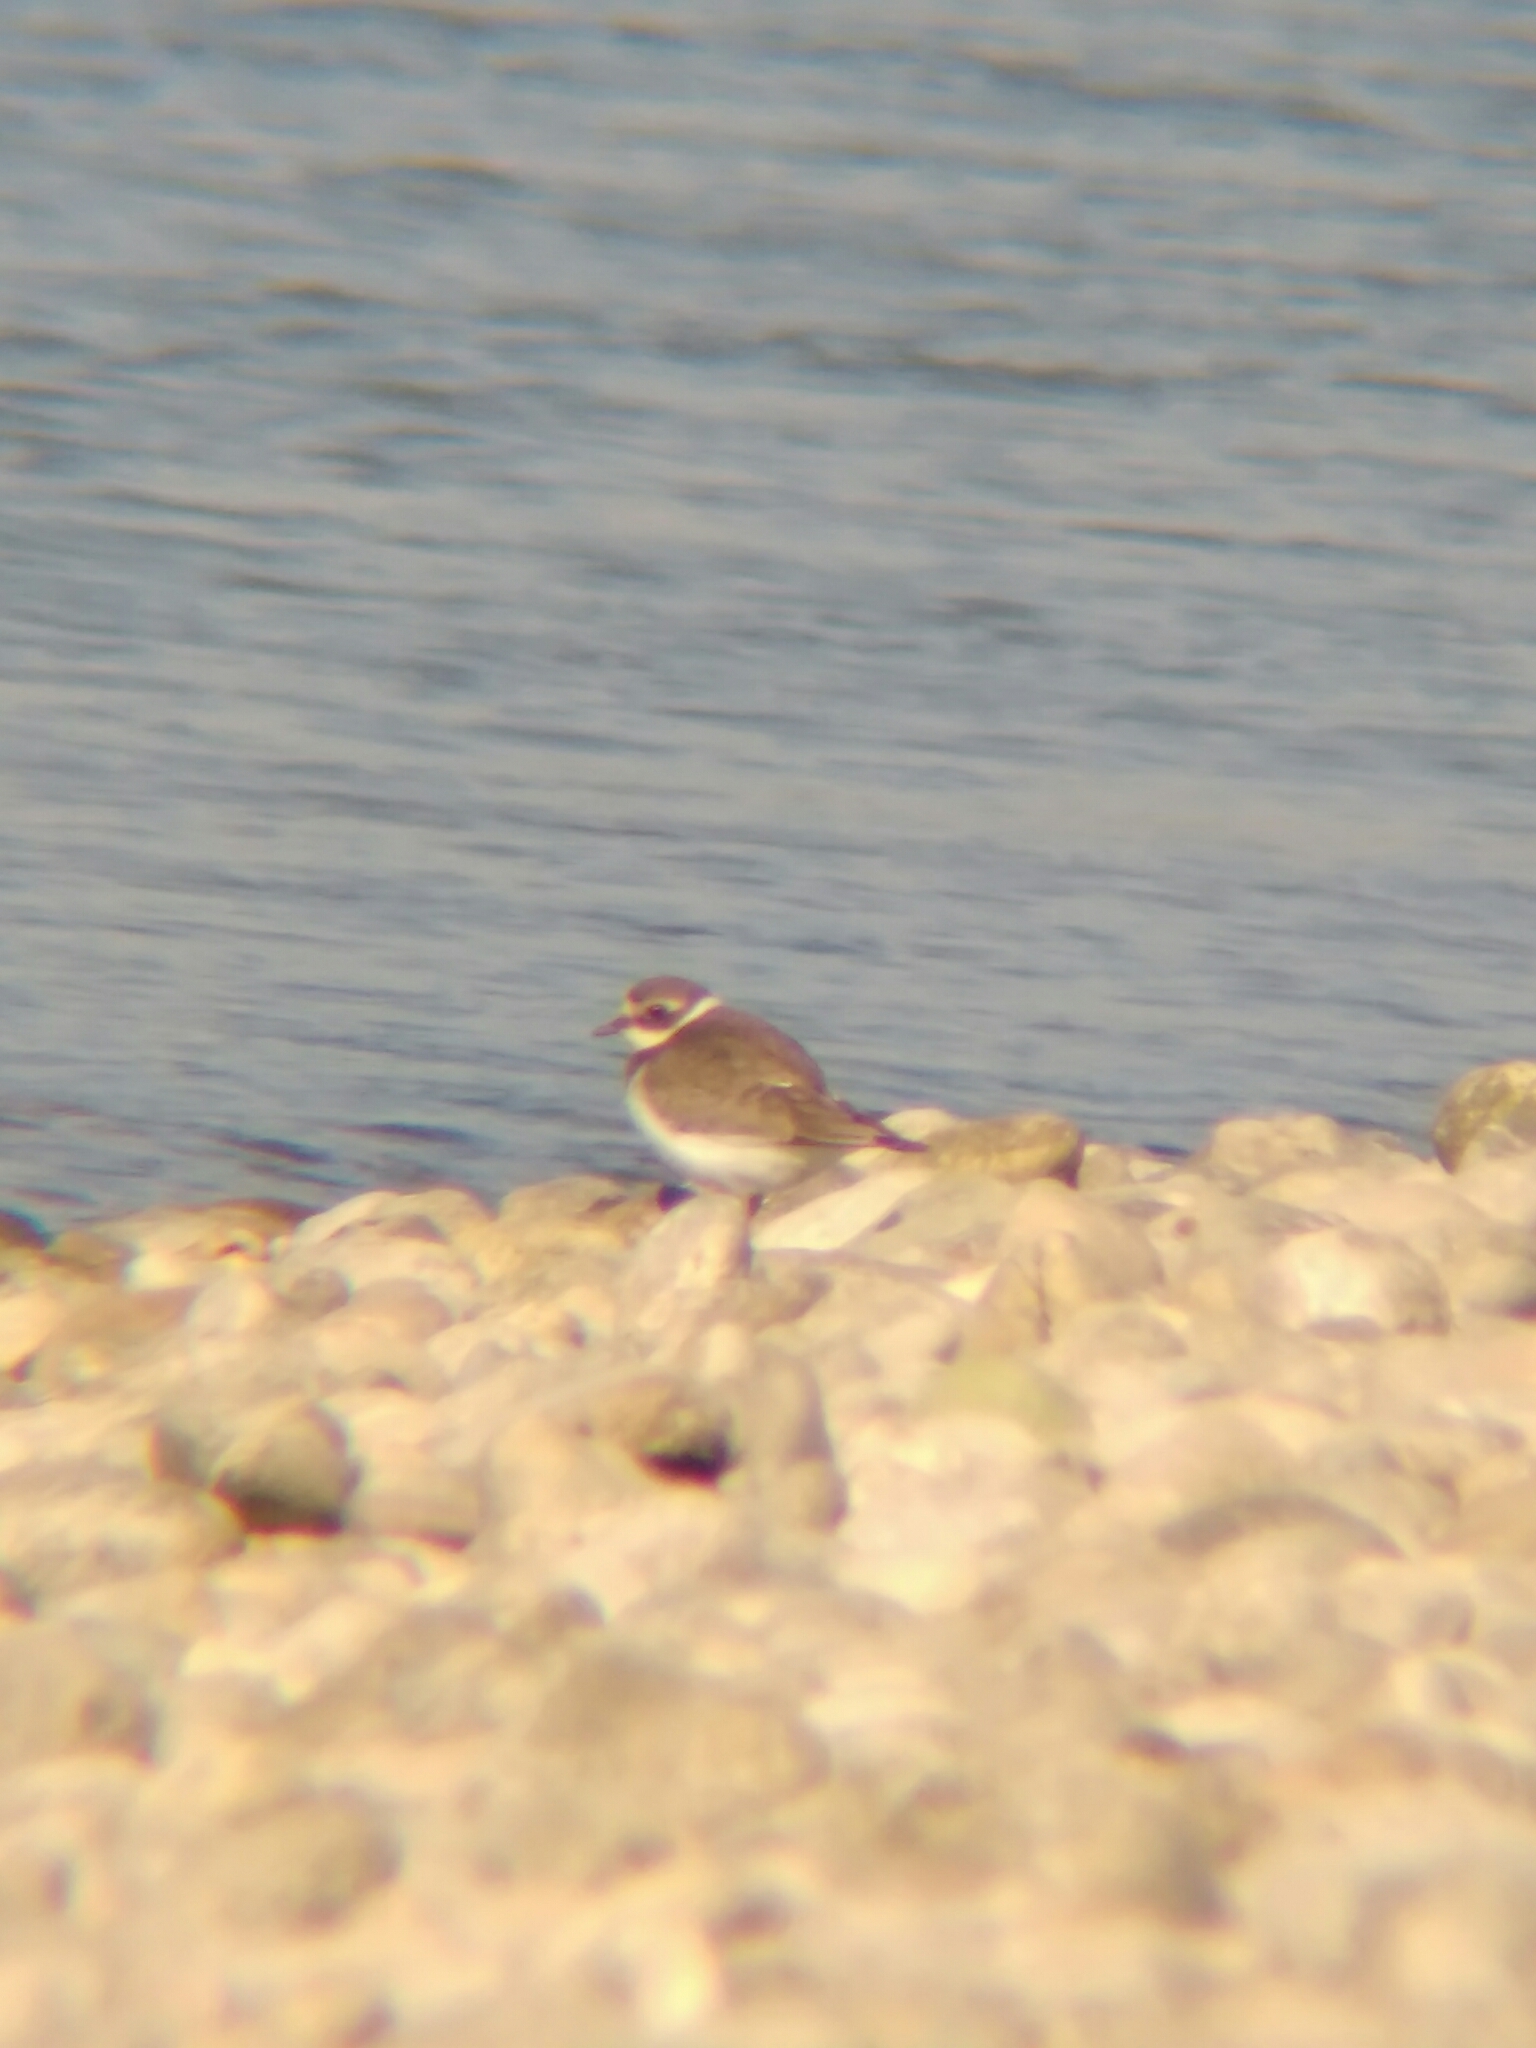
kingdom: Animalia
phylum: Chordata
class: Aves
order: Charadriiformes
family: Charadriidae
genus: Charadrius
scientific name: Charadrius hiaticula
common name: Common ringed plover
